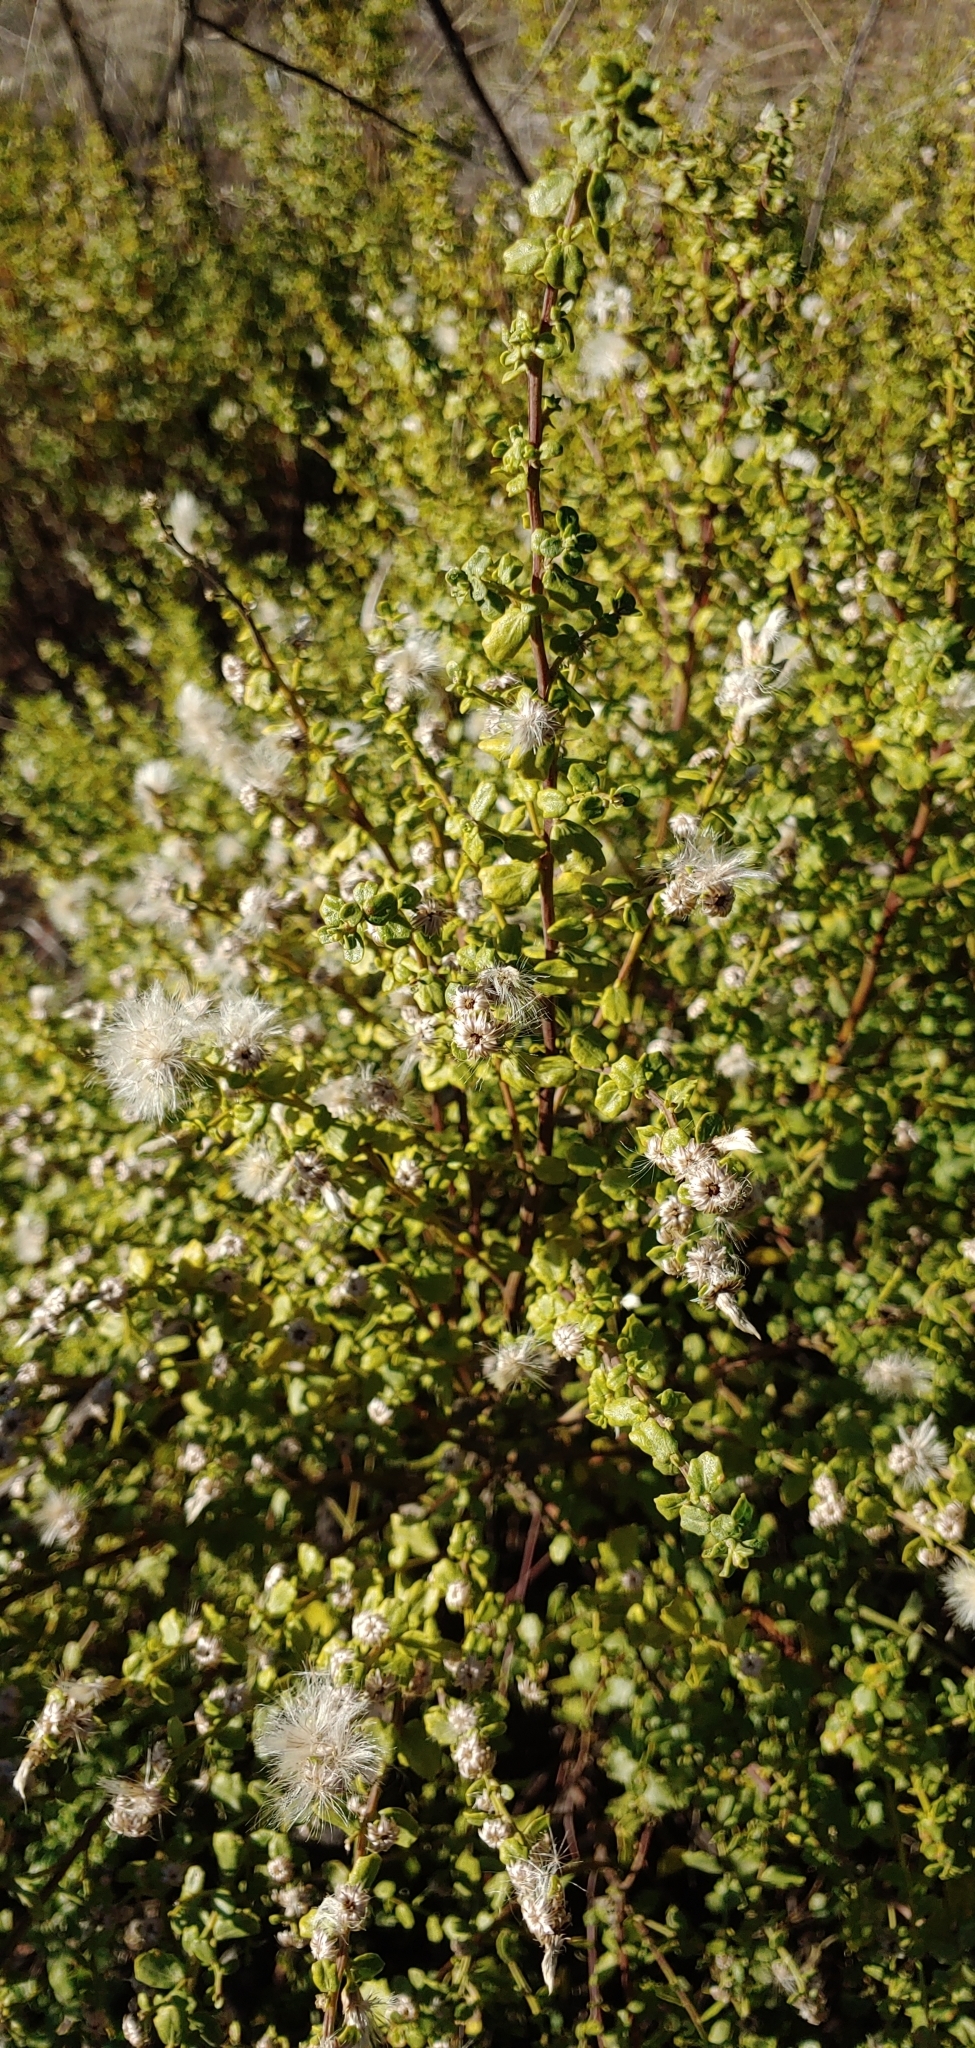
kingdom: Plantae
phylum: Tracheophyta
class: Magnoliopsida
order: Asterales
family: Asteraceae
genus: Baccharis
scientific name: Baccharis pilularis
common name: Coyotebrush
